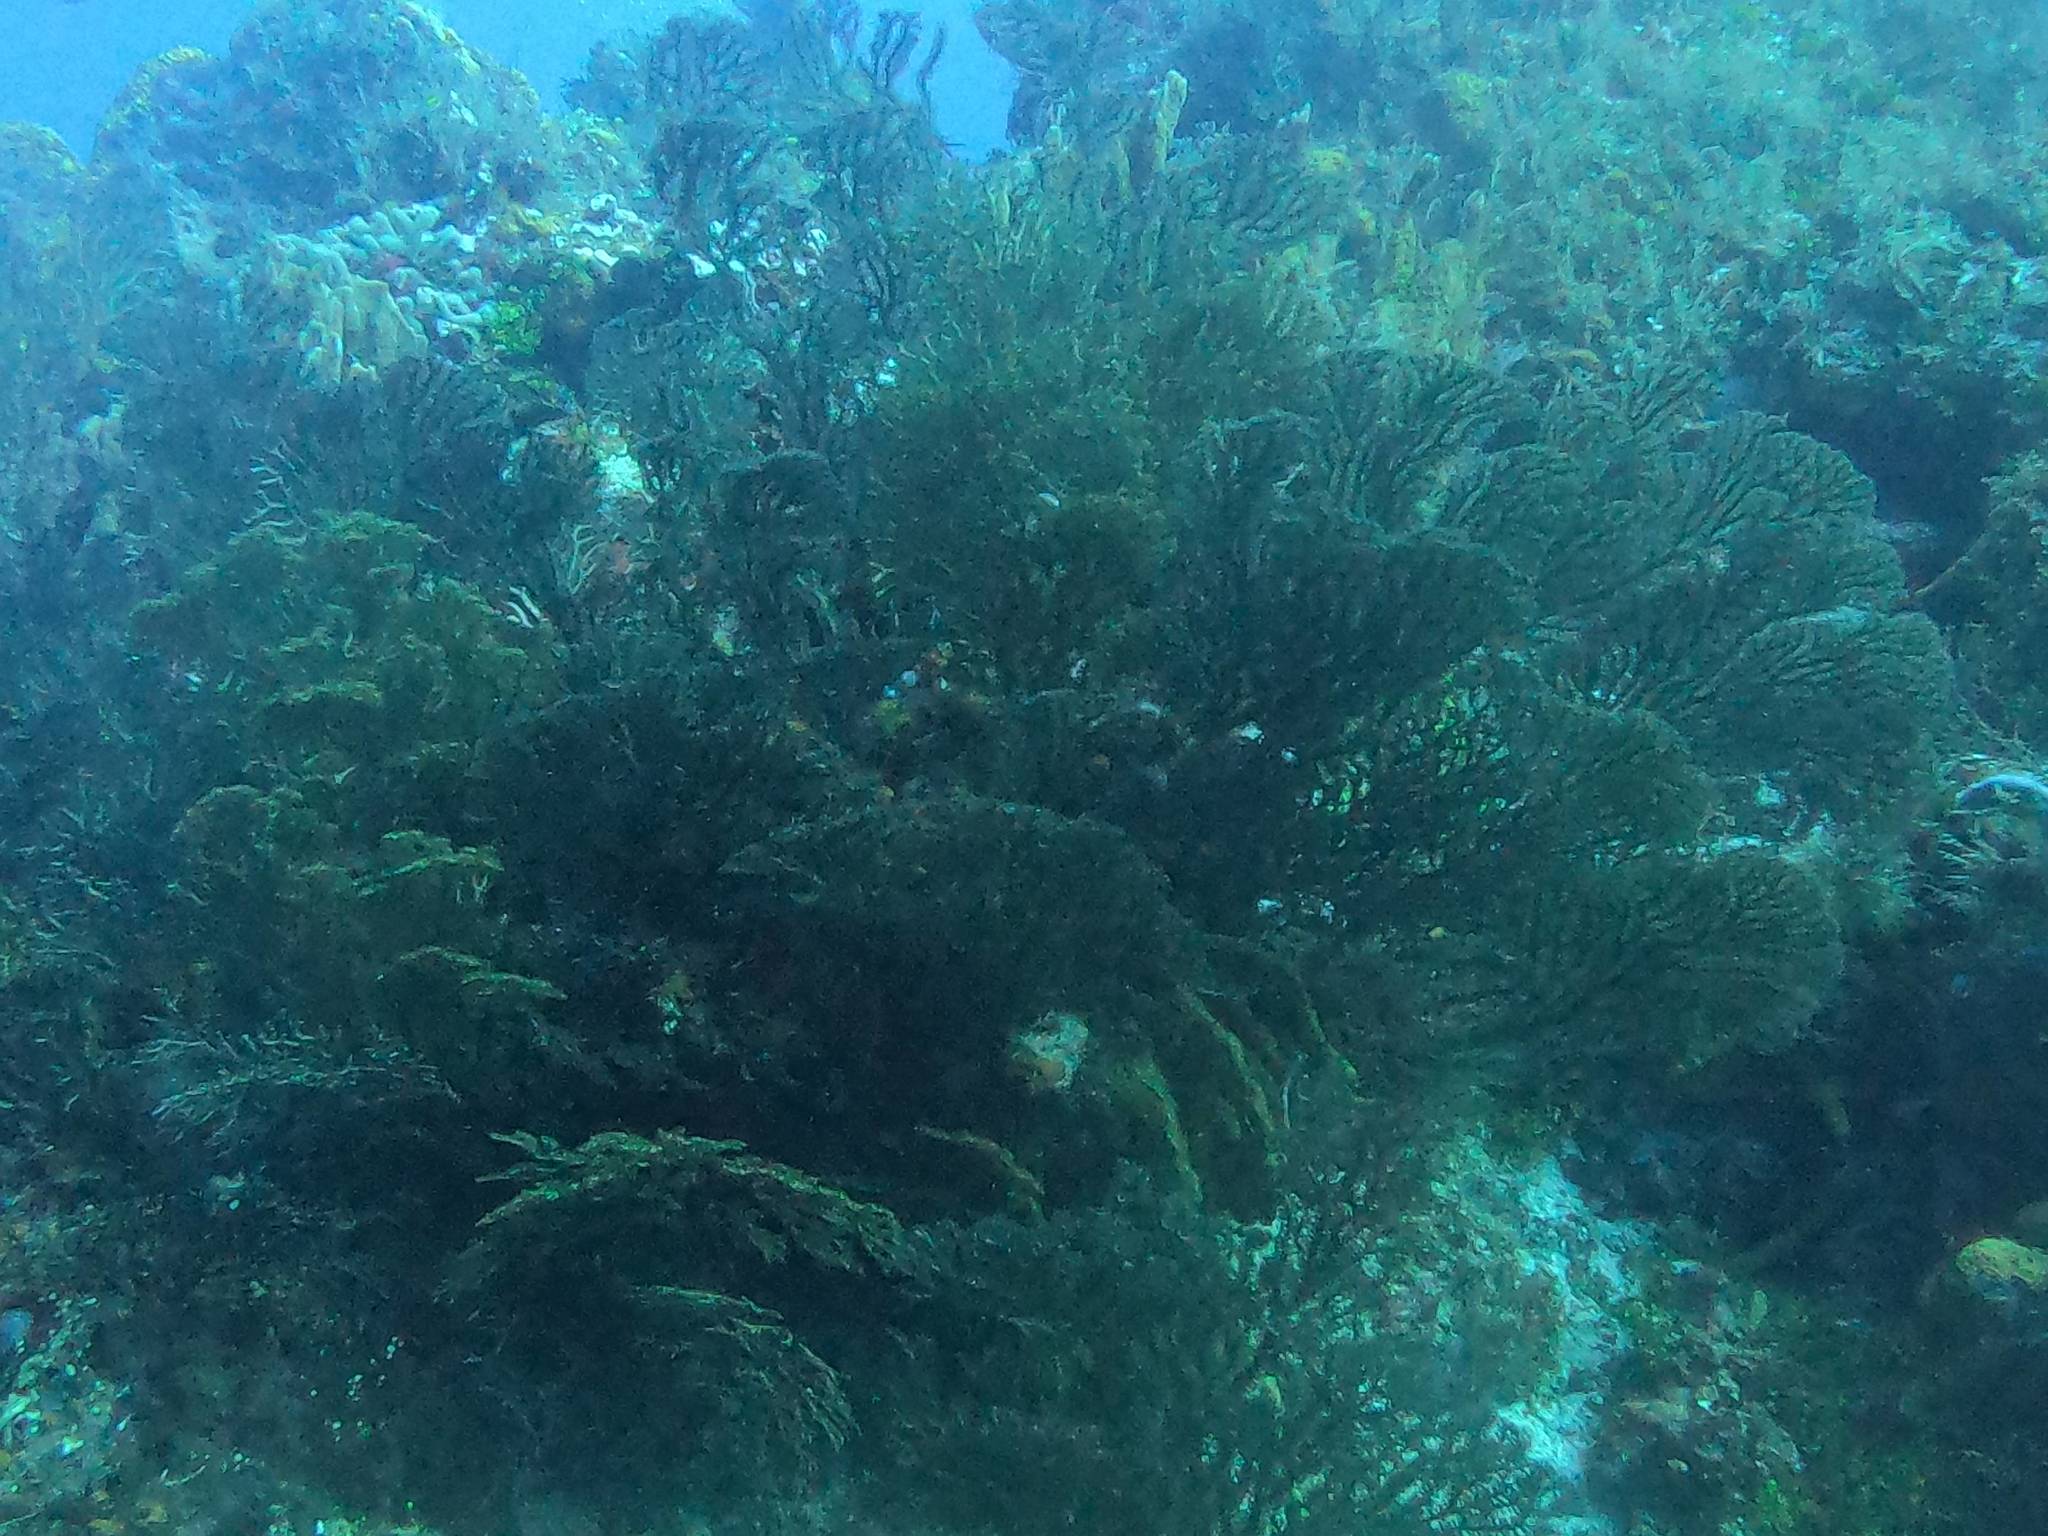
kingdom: Animalia
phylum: Cnidaria
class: Anthozoa
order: Malacalcyonacea
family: Melithaeidae
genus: Iciligorgia
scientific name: Iciligorgia schrammi
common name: Black sea fan
